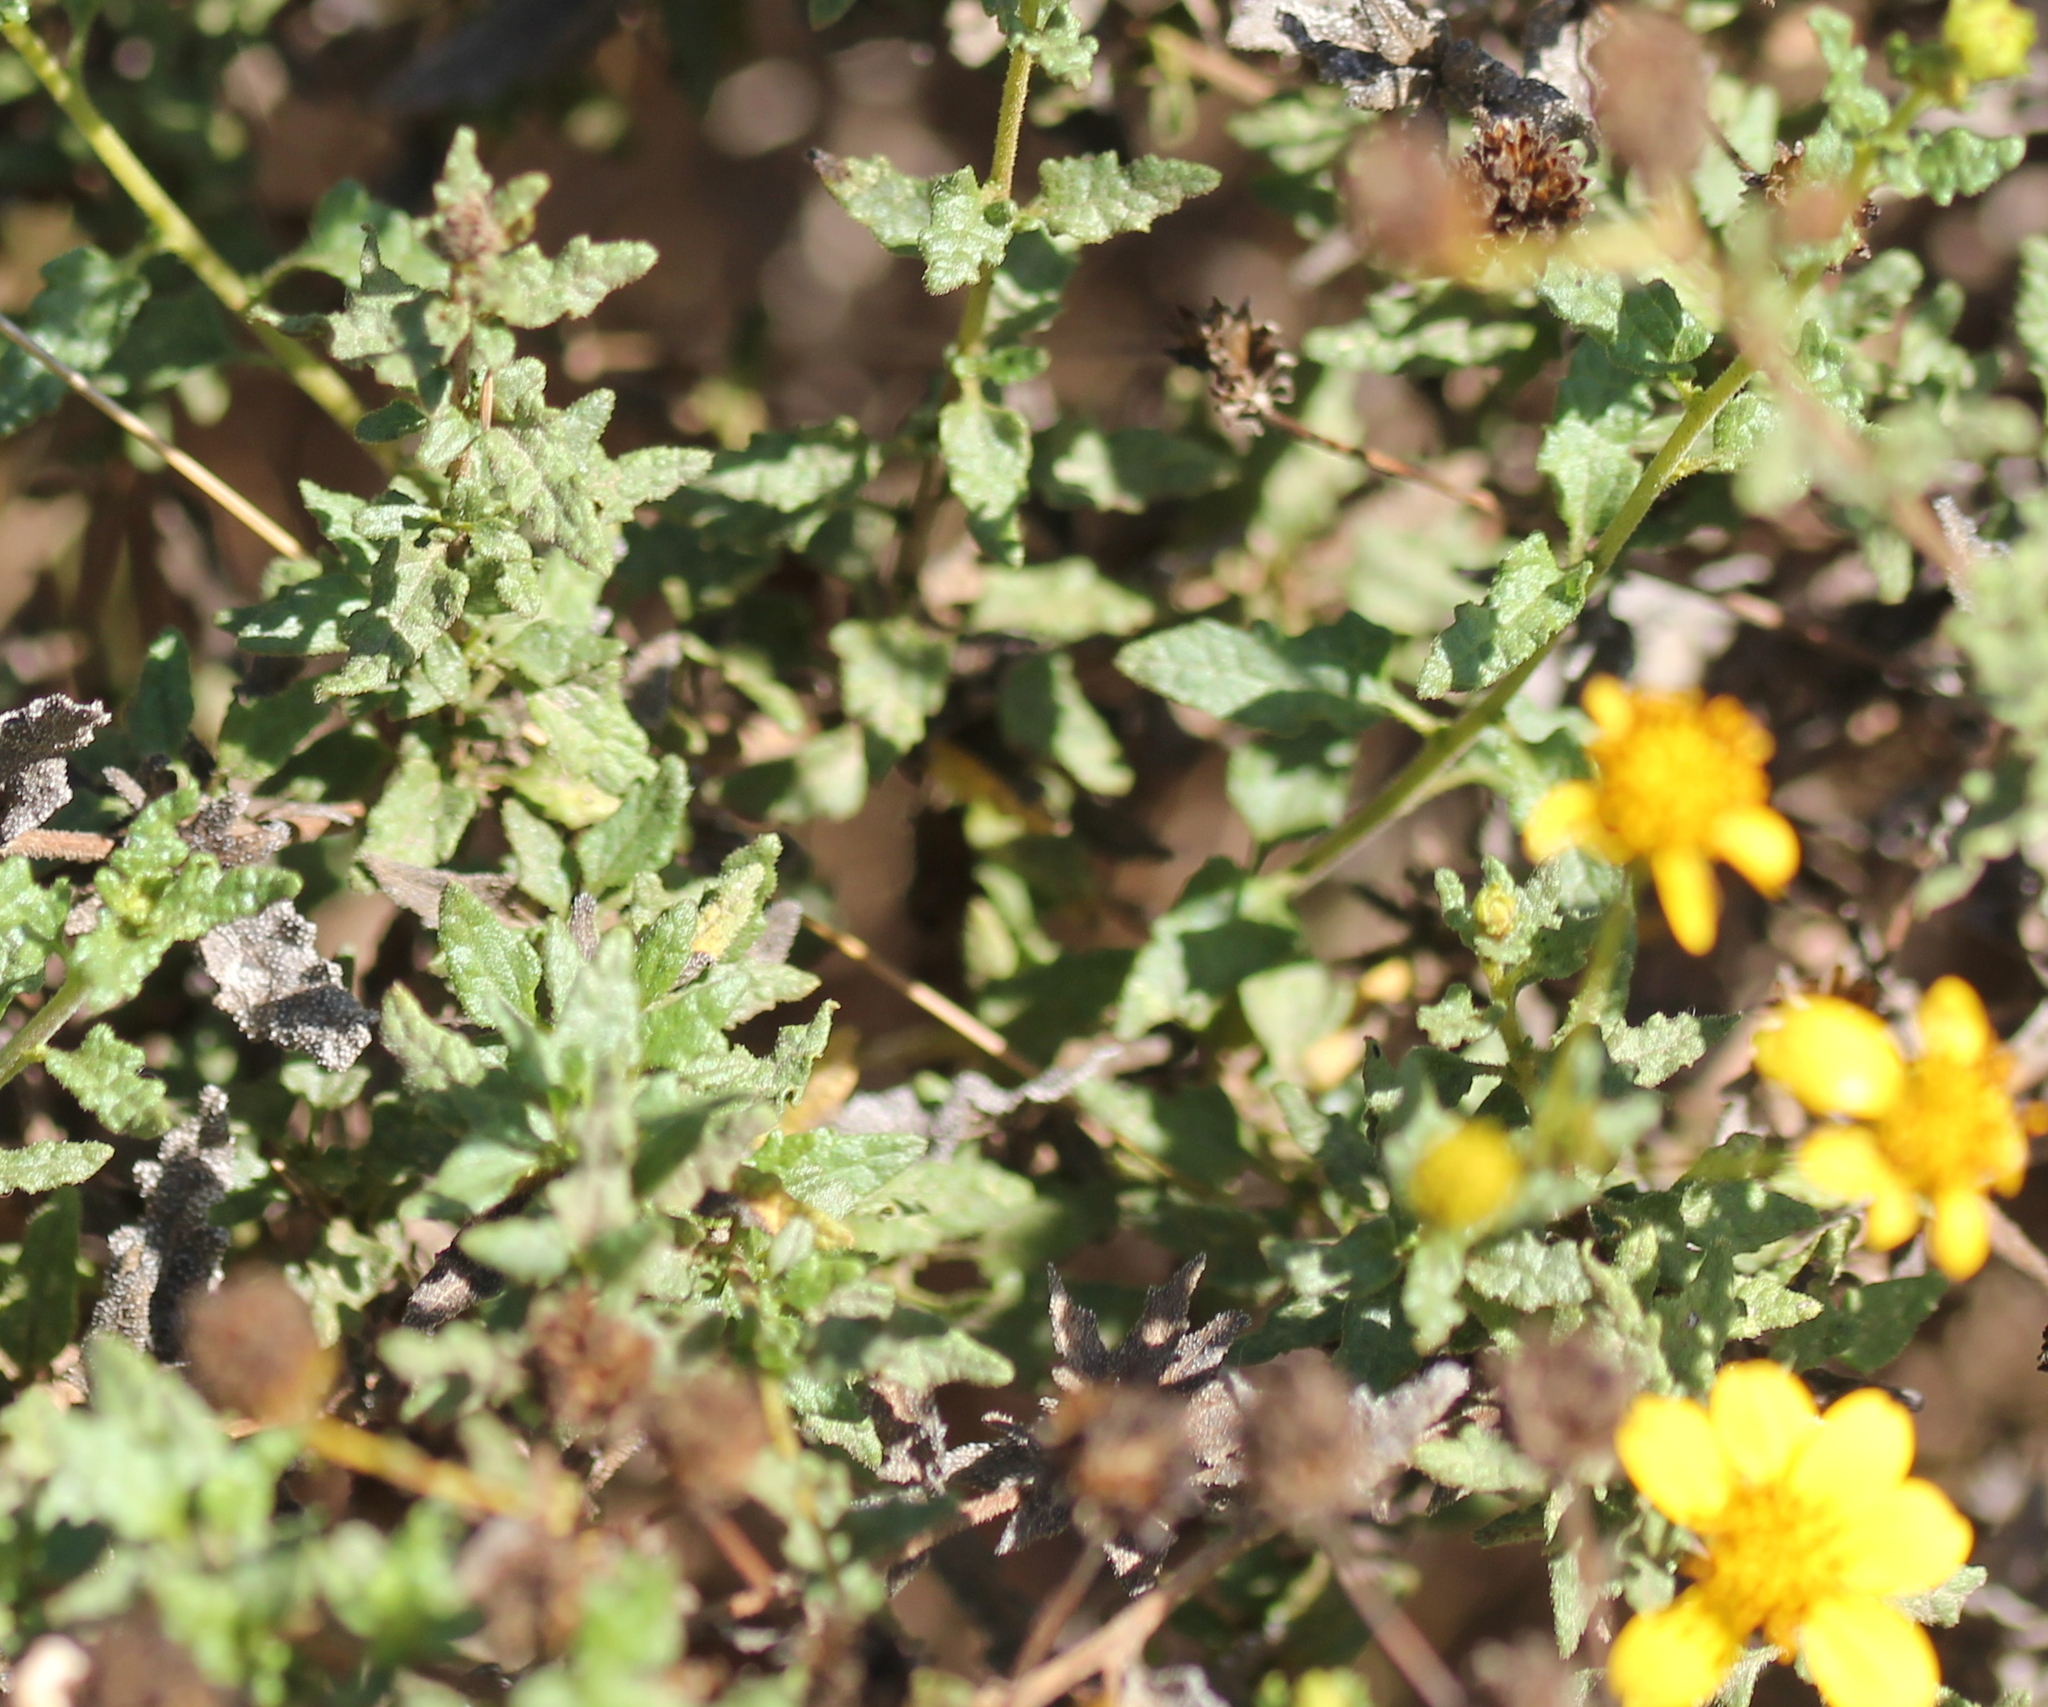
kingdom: Plantae
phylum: Tracheophyta
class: Magnoliopsida
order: Asterales
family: Asteraceae
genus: Bahiopsis
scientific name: Bahiopsis laciniata
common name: San diego county viguiera
